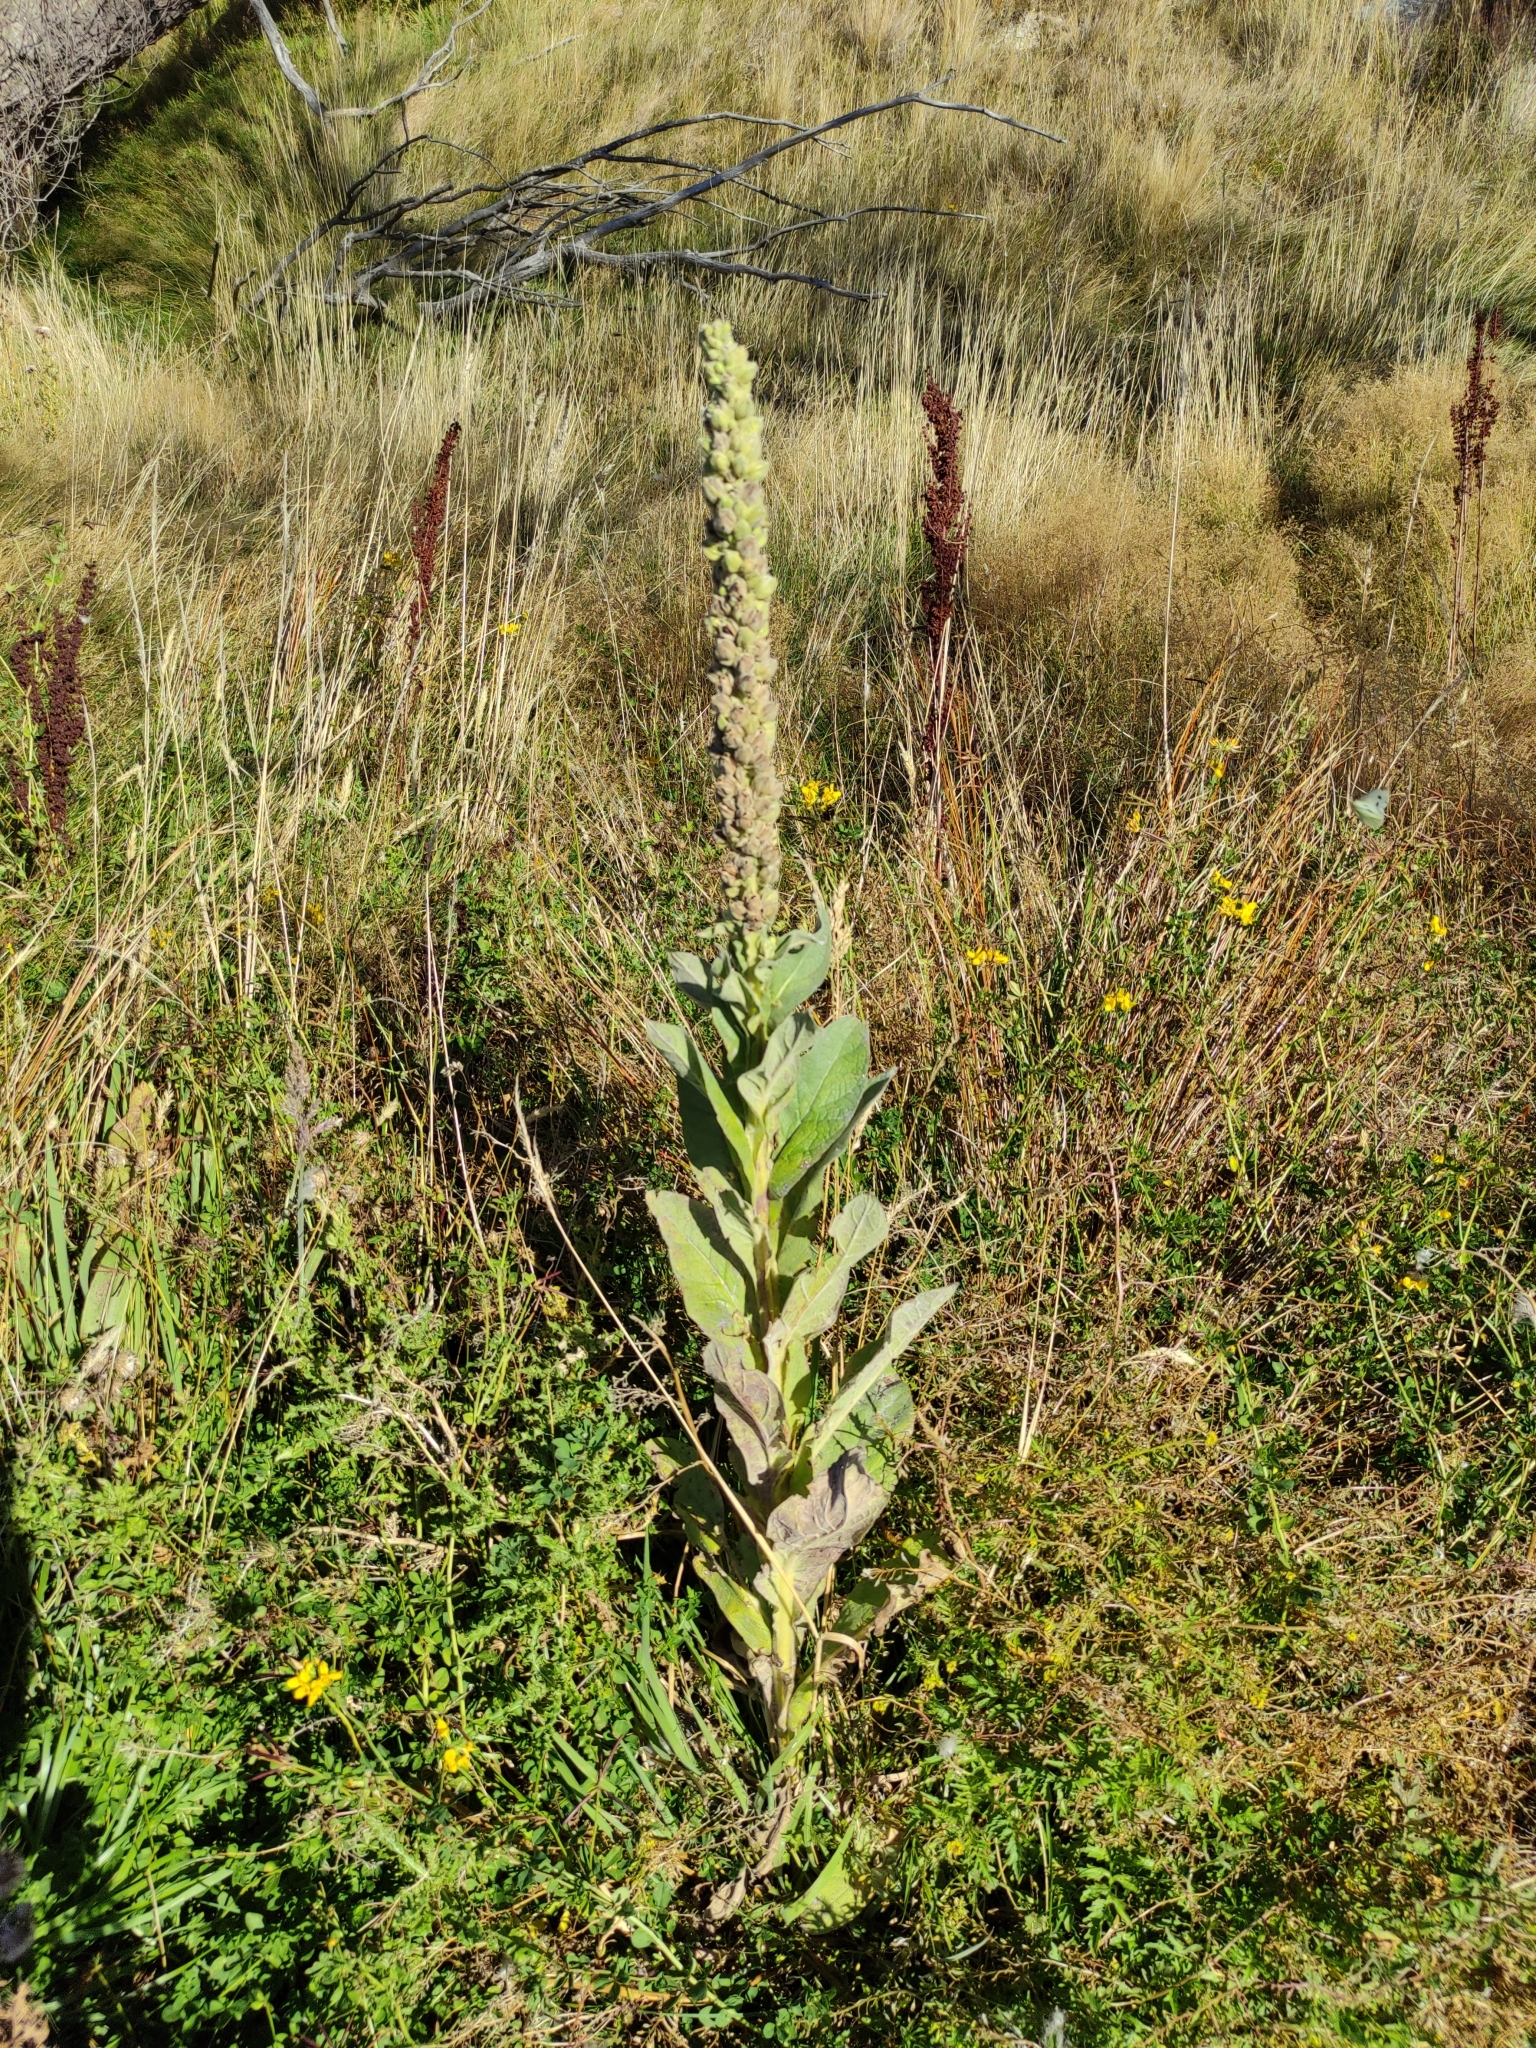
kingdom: Plantae
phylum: Tracheophyta
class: Magnoliopsida
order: Lamiales
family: Scrophulariaceae
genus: Verbascum
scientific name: Verbascum thapsus
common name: Common mullein
